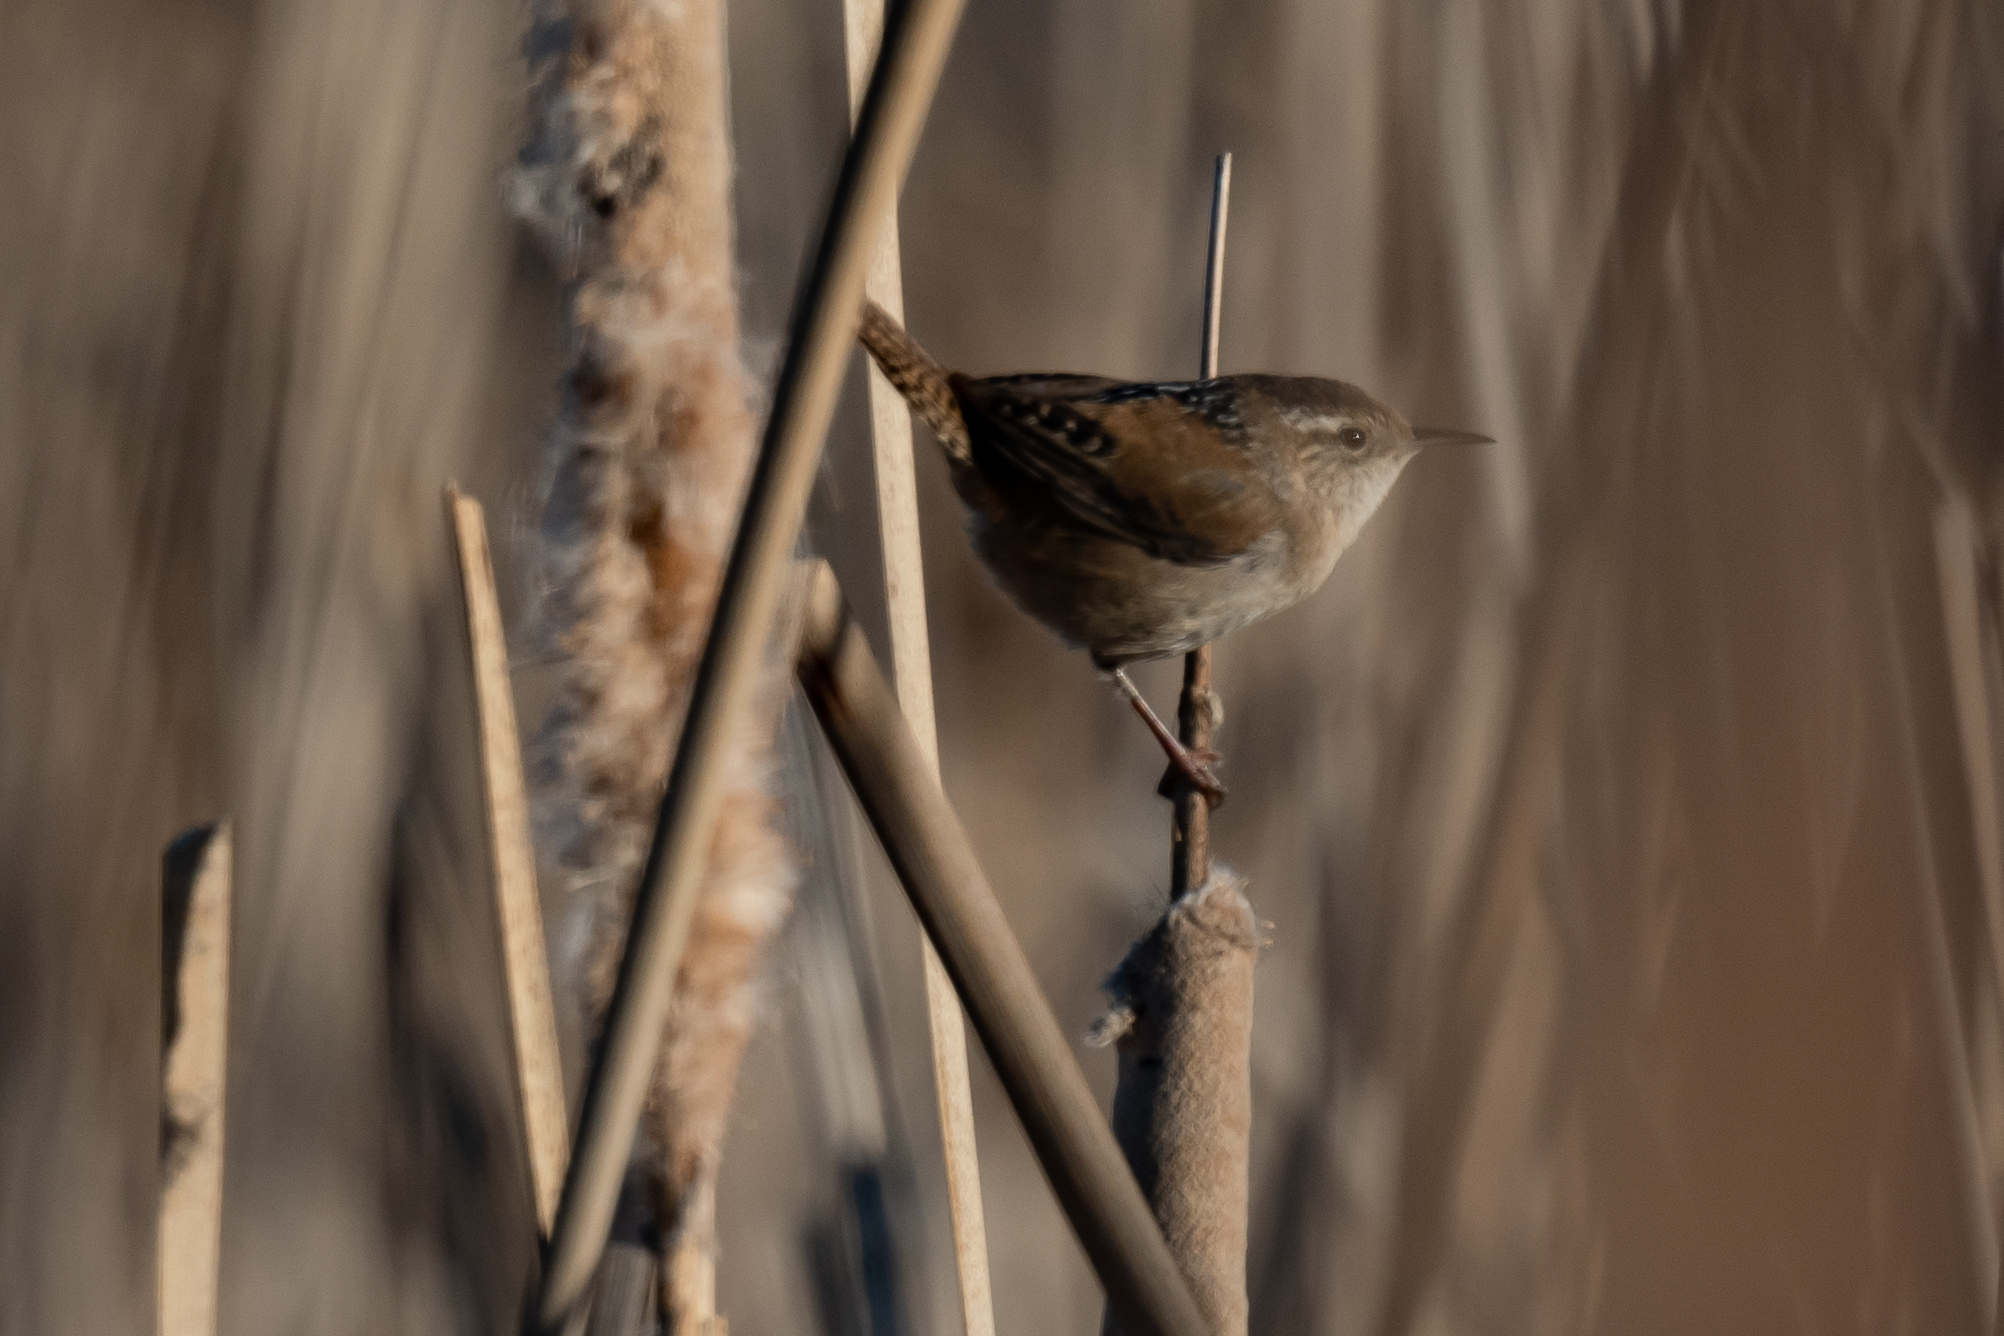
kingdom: Animalia
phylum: Chordata
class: Aves
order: Passeriformes
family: Troglodytidae
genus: Cistothorus
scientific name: Cistothorus palustris
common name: Marsh wren
